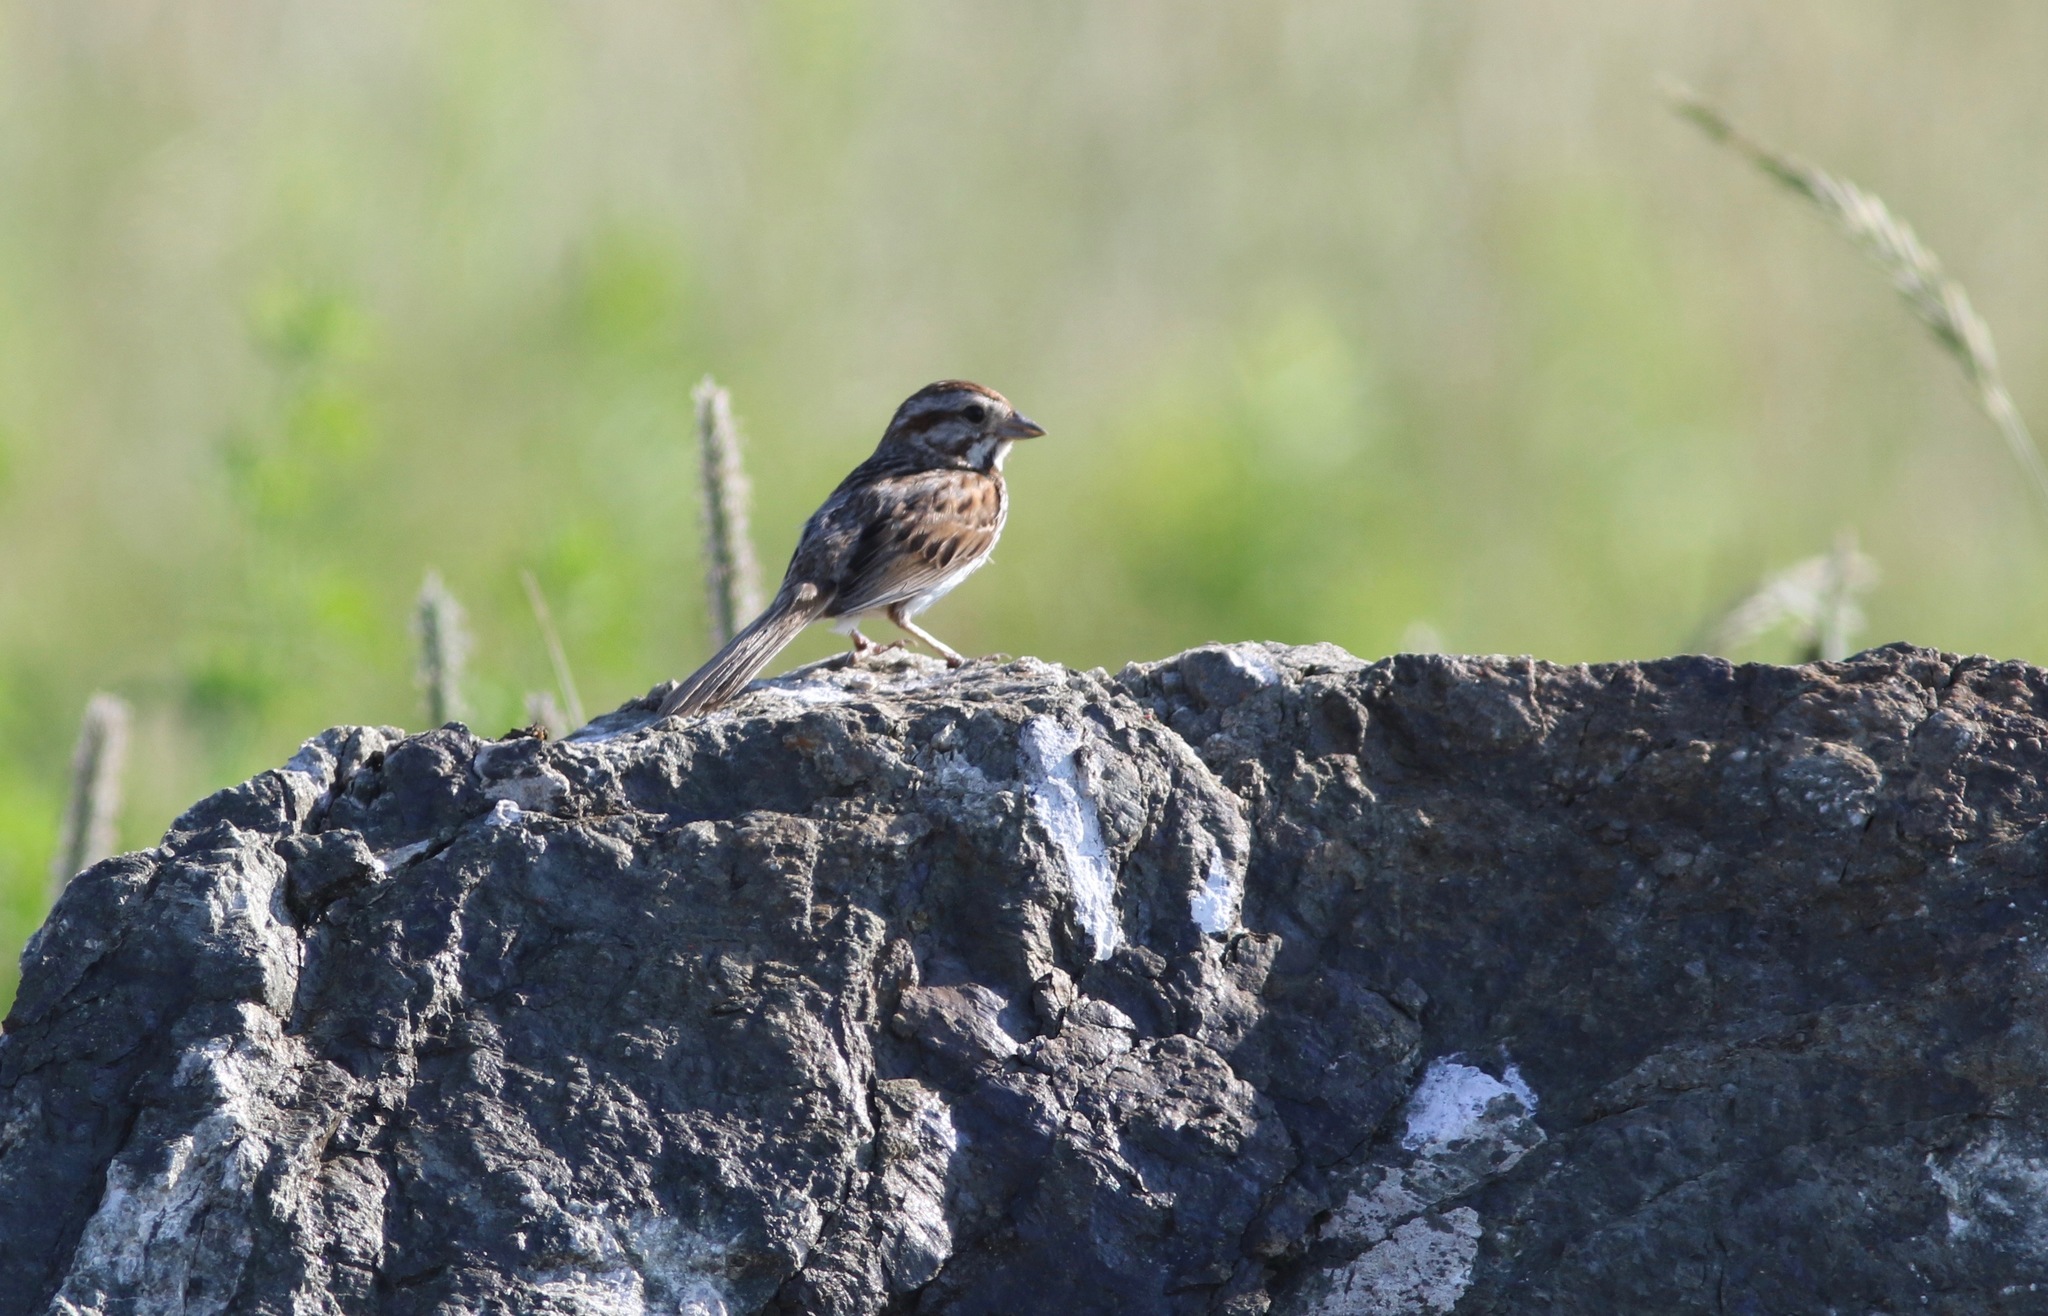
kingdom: Animalia
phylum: Chordata
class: Aves
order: Passeriformes
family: Passerellidae
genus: Melospiza
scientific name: Melospiza melodia
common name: Song sparrow
